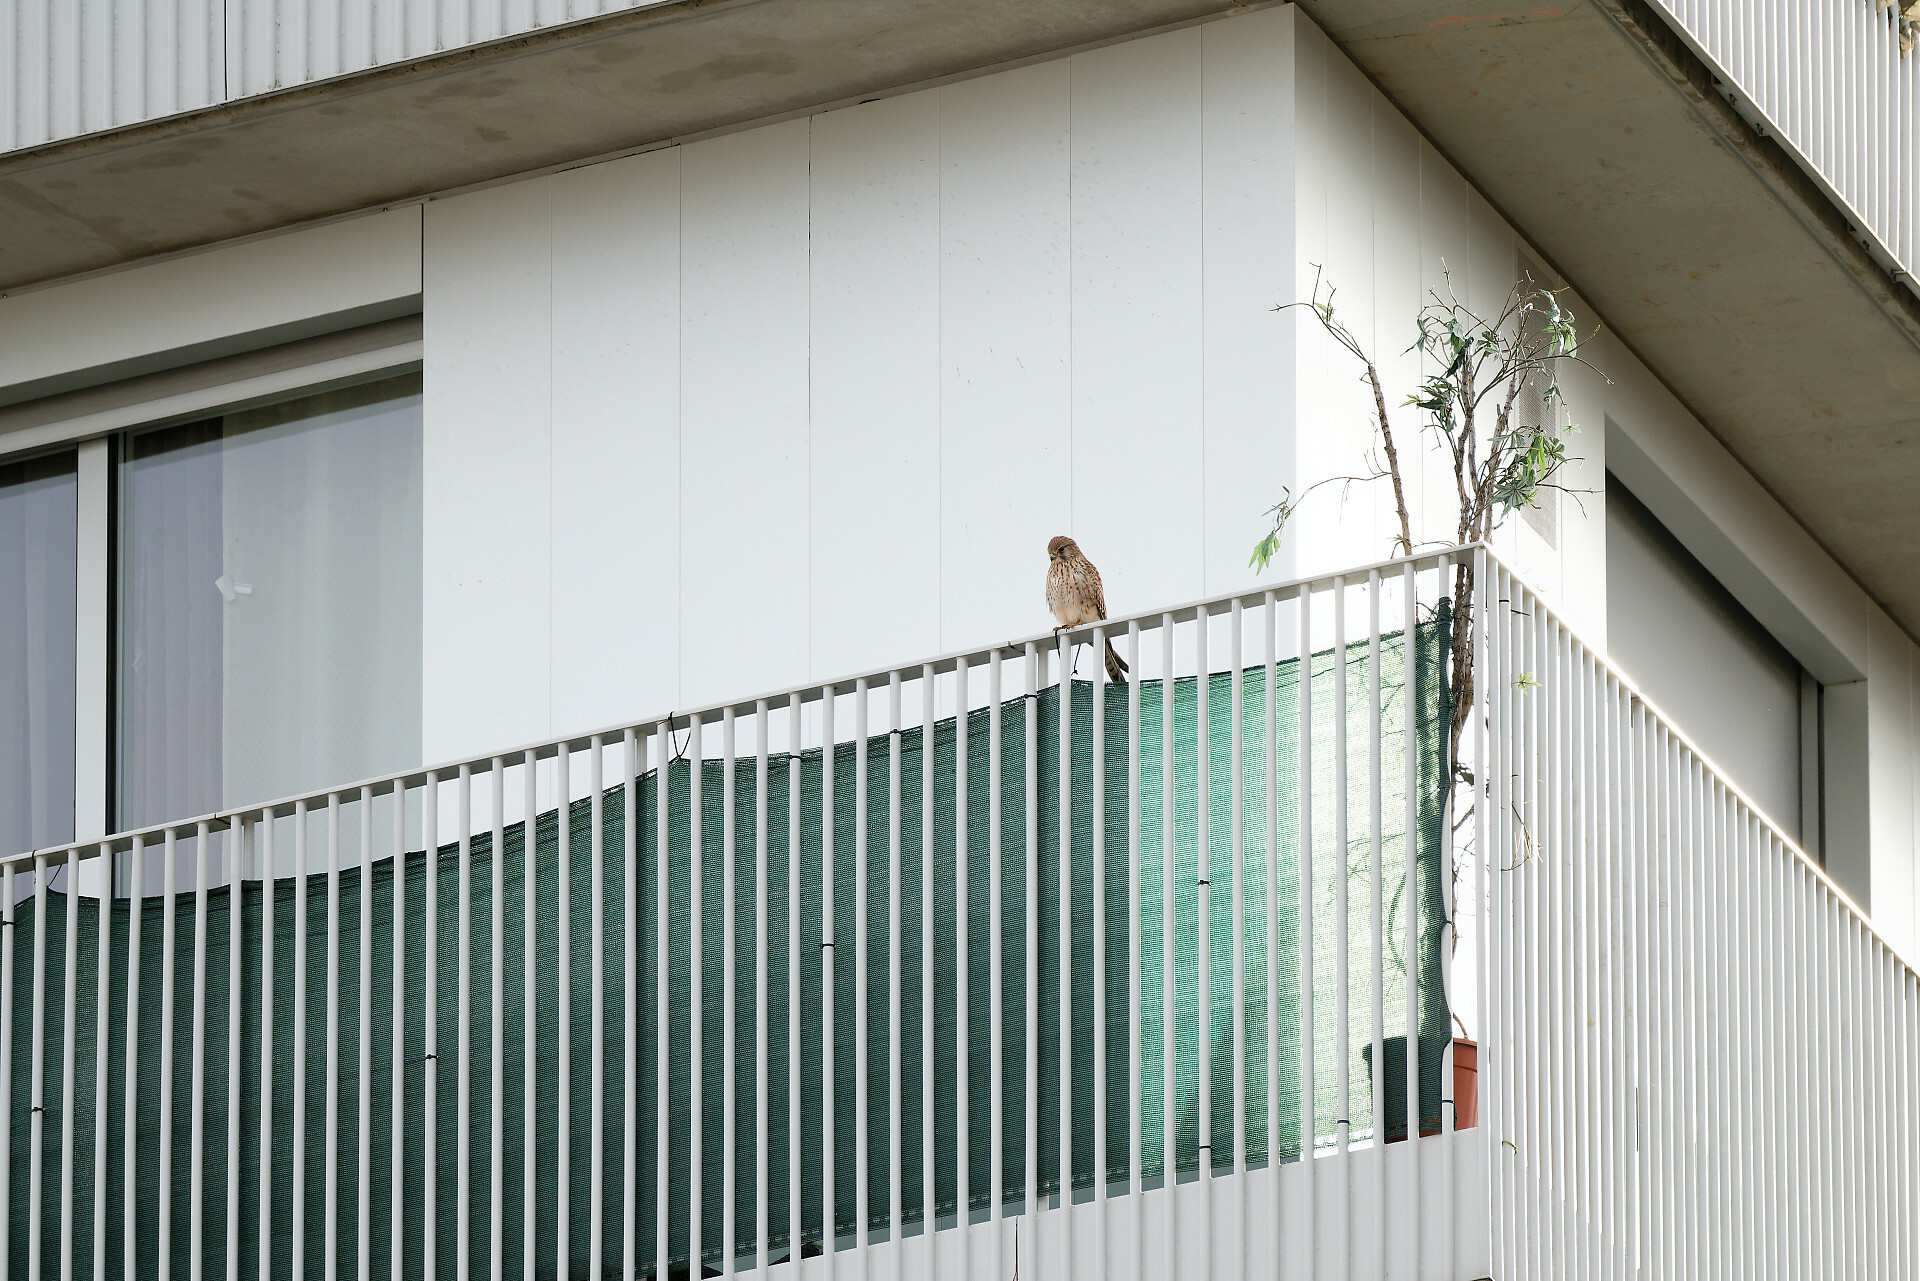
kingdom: Animalia
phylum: Chordata
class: Aves
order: Falconiformes
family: Falconidae
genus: Falco
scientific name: Falco tinnunculus
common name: Common kestrel
